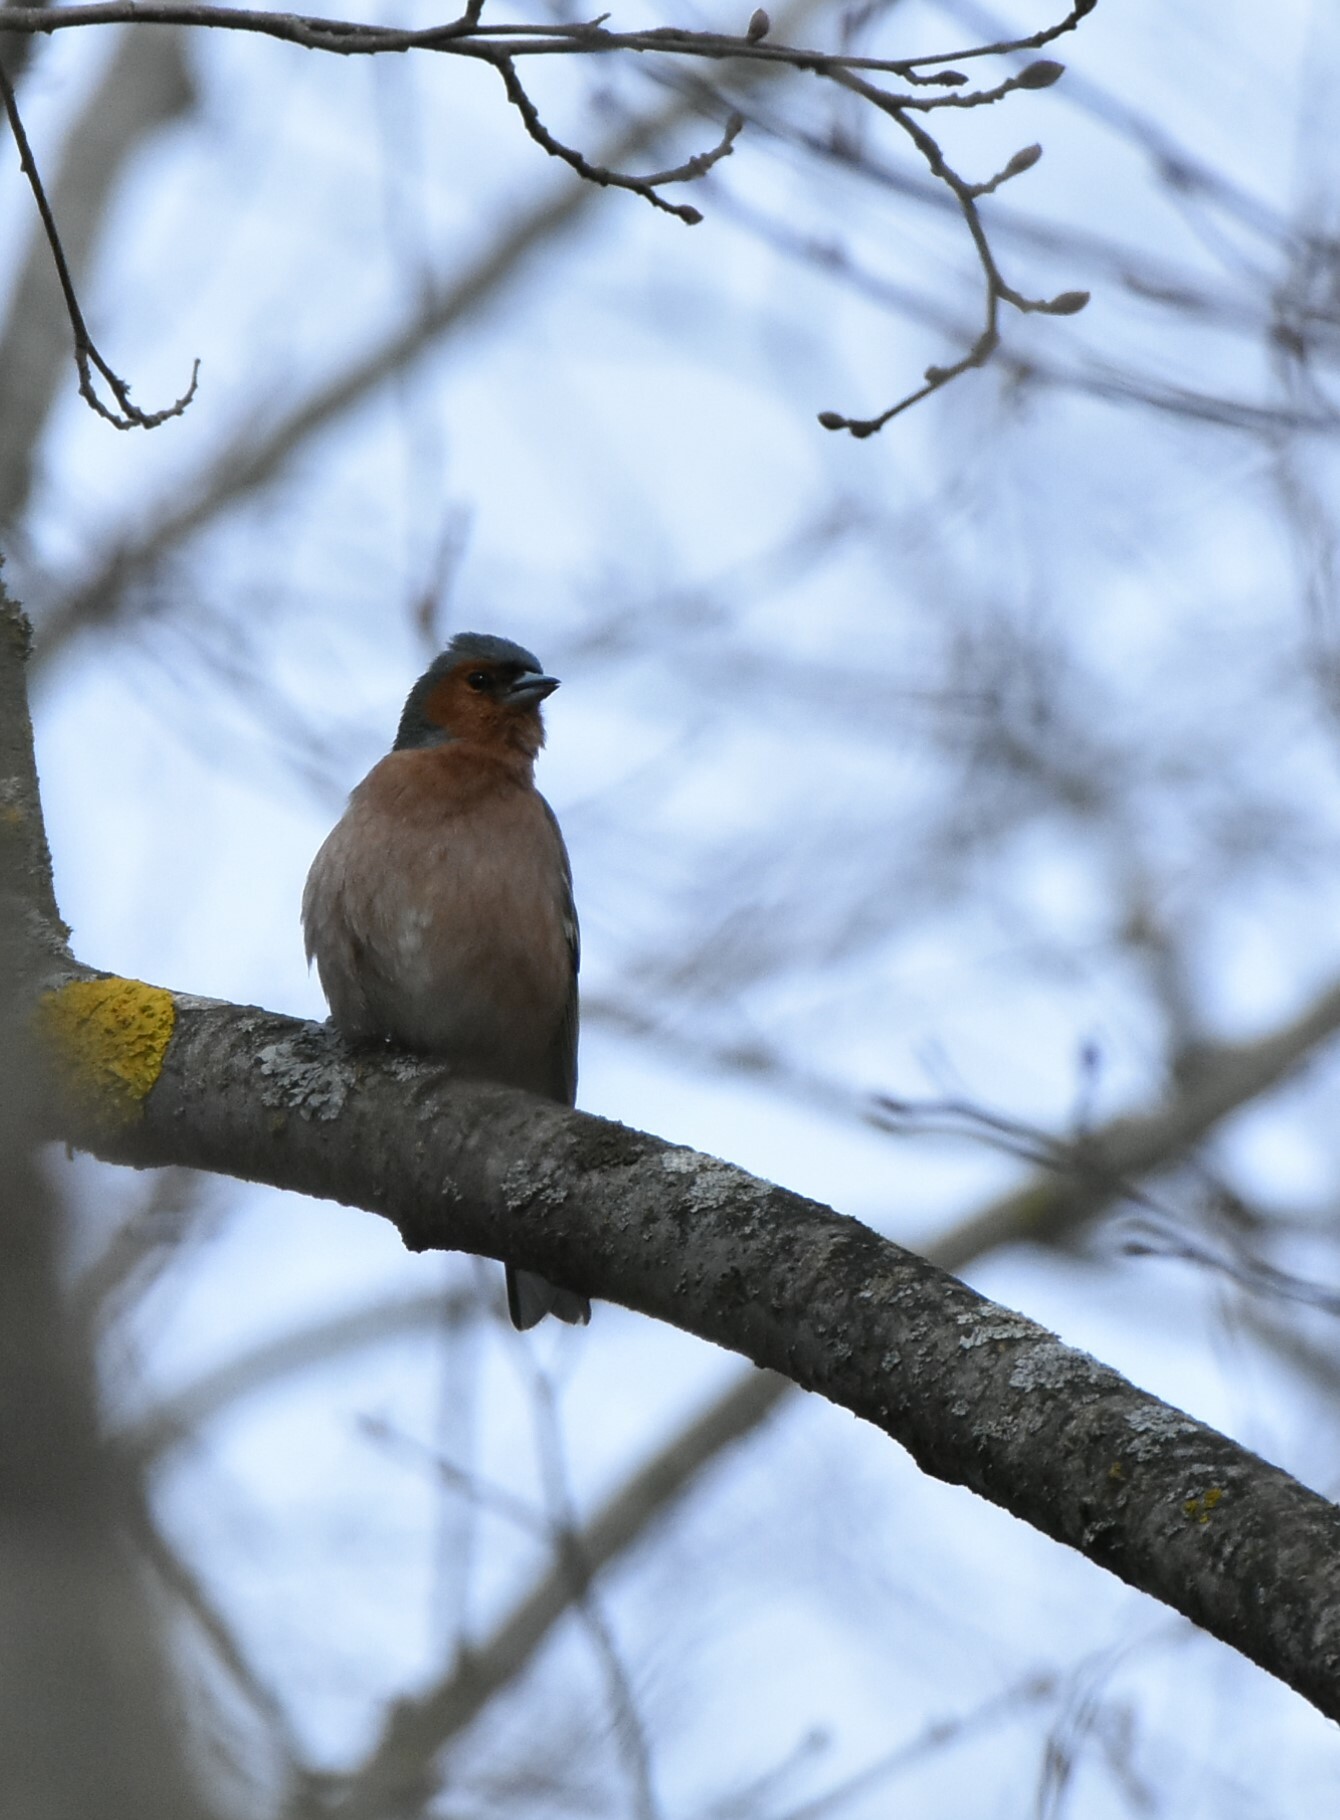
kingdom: Animalia
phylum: Chordata
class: Aves
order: Passeriformes
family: Fringillidae
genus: Fringilla
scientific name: Fringilla coelebs
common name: Common chaffinch
